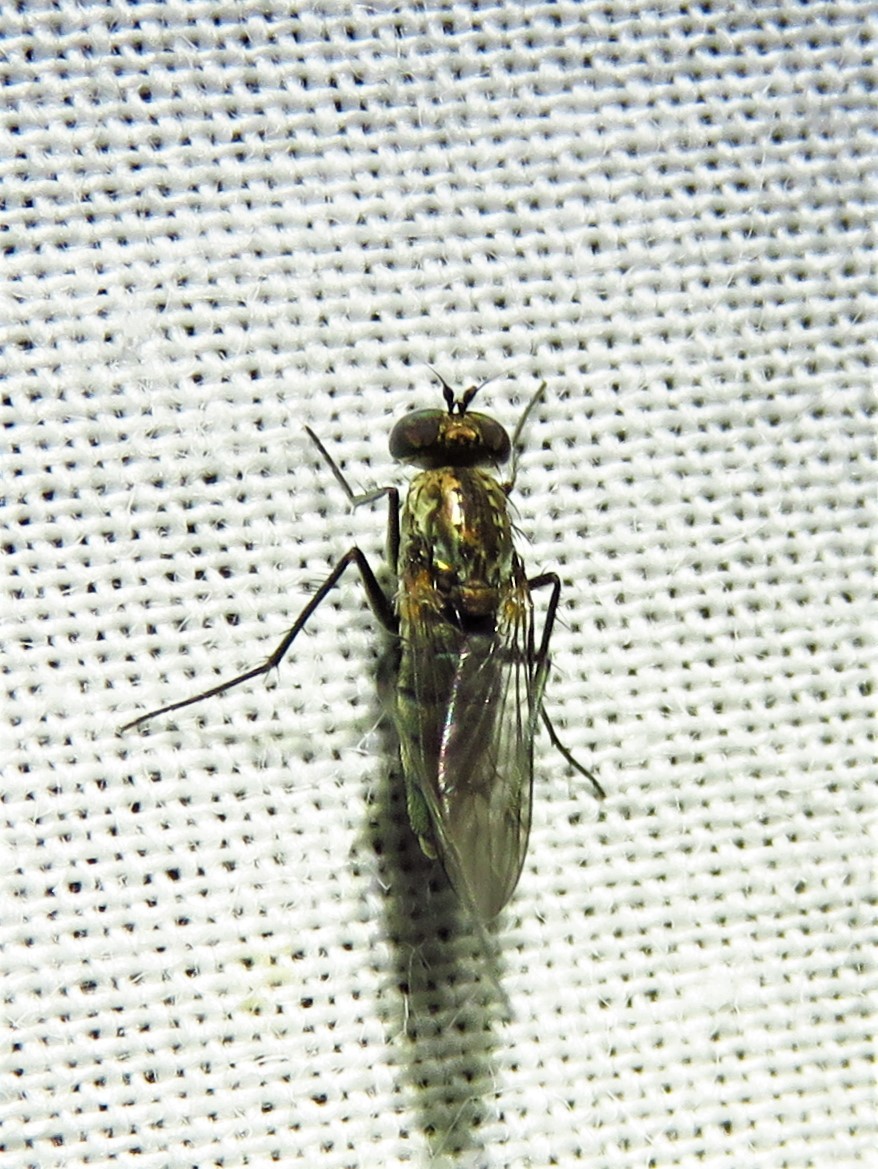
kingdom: Animalia
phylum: Arthropoda
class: Insecta
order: Diptera
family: Dolichopodidae
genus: Tachytrechus
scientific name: Tachytrechus angustipennis
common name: Long-legged fly
